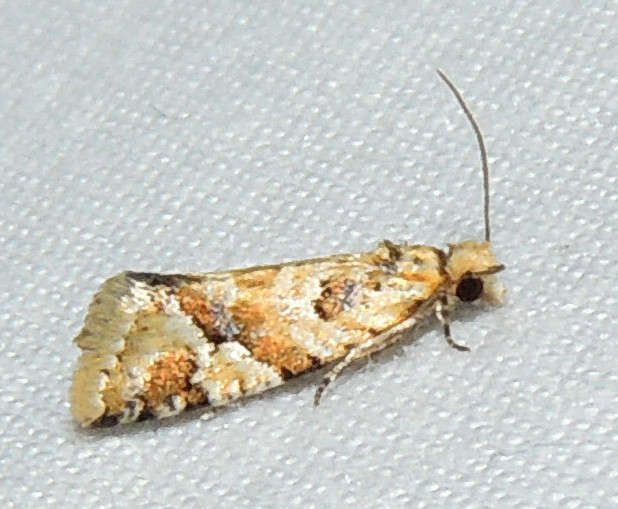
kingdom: Animalia
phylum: Arthropoda
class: Insecta
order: Lepidoptera
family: Tortricidae
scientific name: Tortricidae
